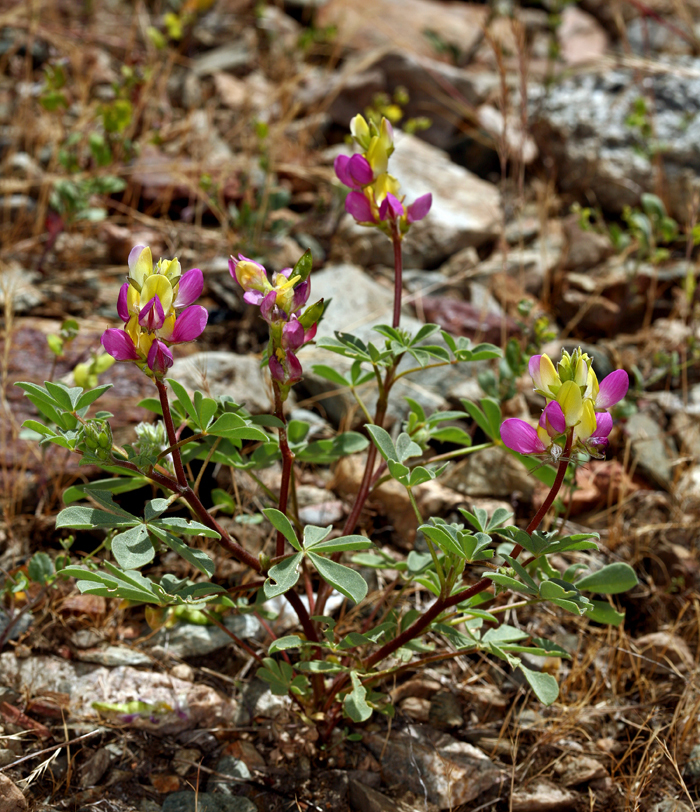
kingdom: Plantae
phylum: Tracheophyta
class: Magnoliopsida
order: Fabales
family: Fabaceae
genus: Lupinus
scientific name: Lupinus stiversii
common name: Harlequin lupine
